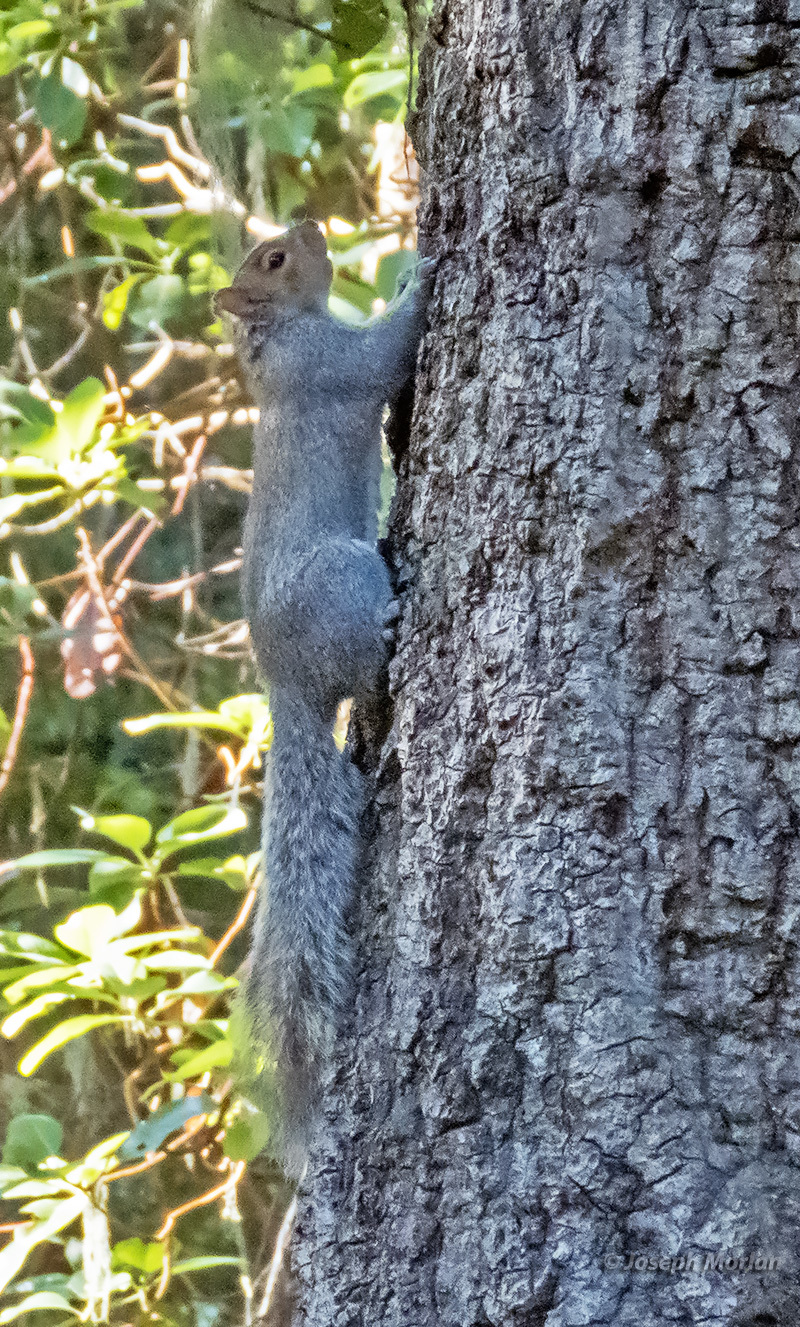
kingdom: Animalia
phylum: Chordata
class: Mammalia
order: Rodentia
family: Sciuridae
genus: Sciurus
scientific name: Sciurus carolinensis
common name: Eastern gray squirrel
